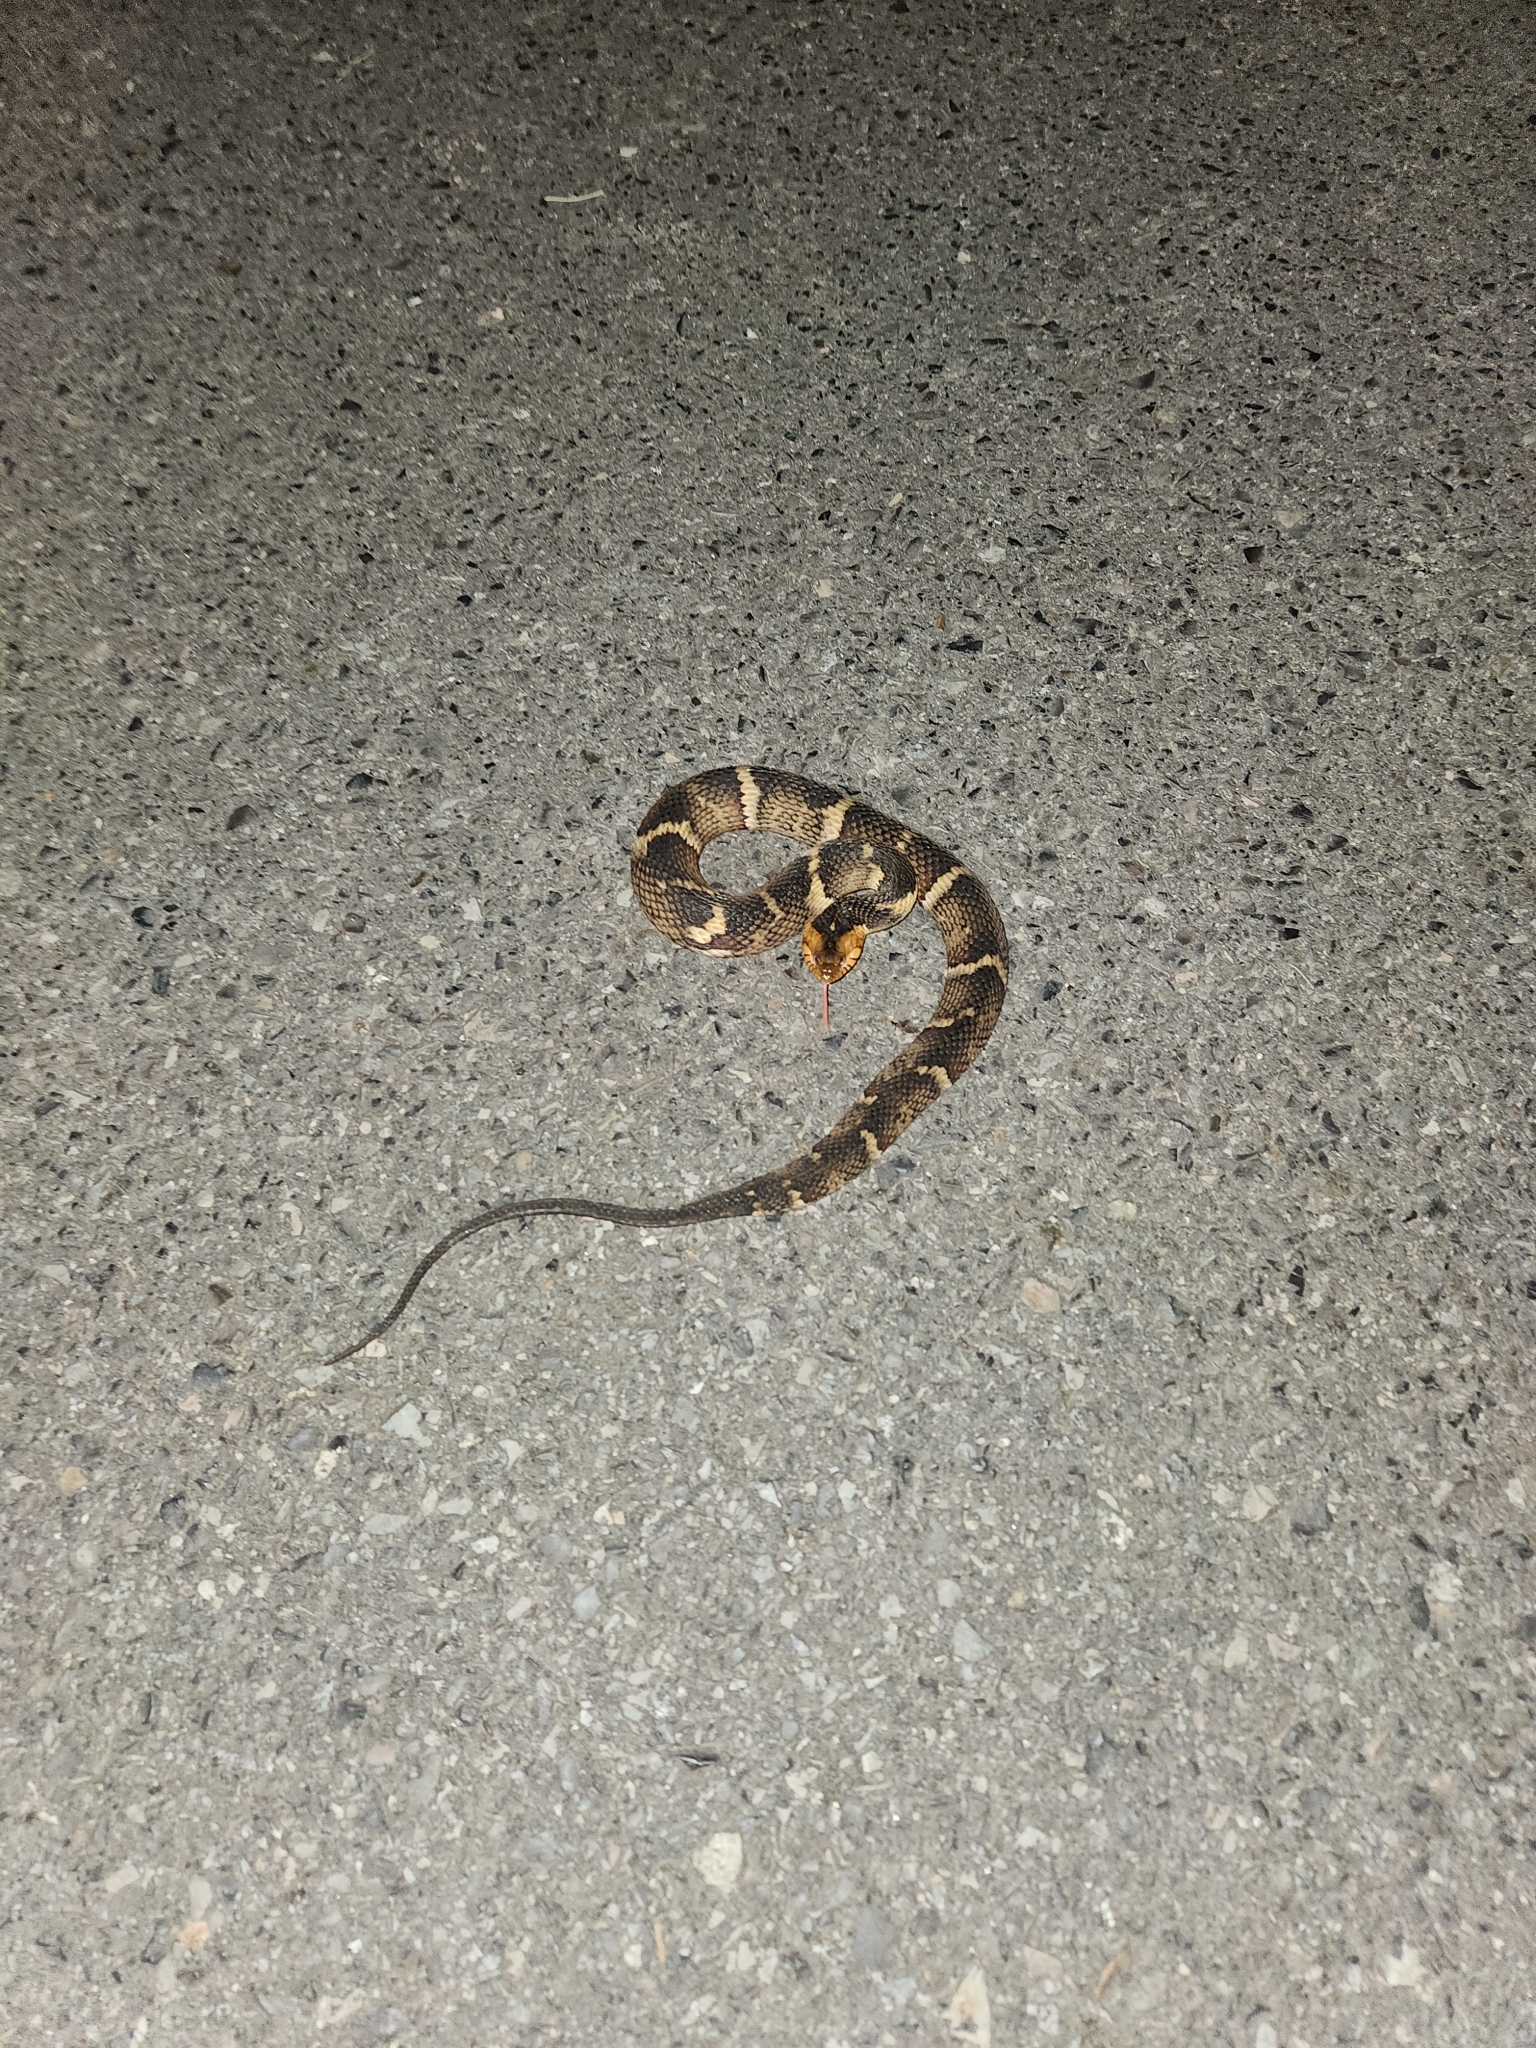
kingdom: Animalia
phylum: Chordata
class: Squamata
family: Colubridae
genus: Nerodia
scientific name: Nerodia fasciata
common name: Southern water snake
